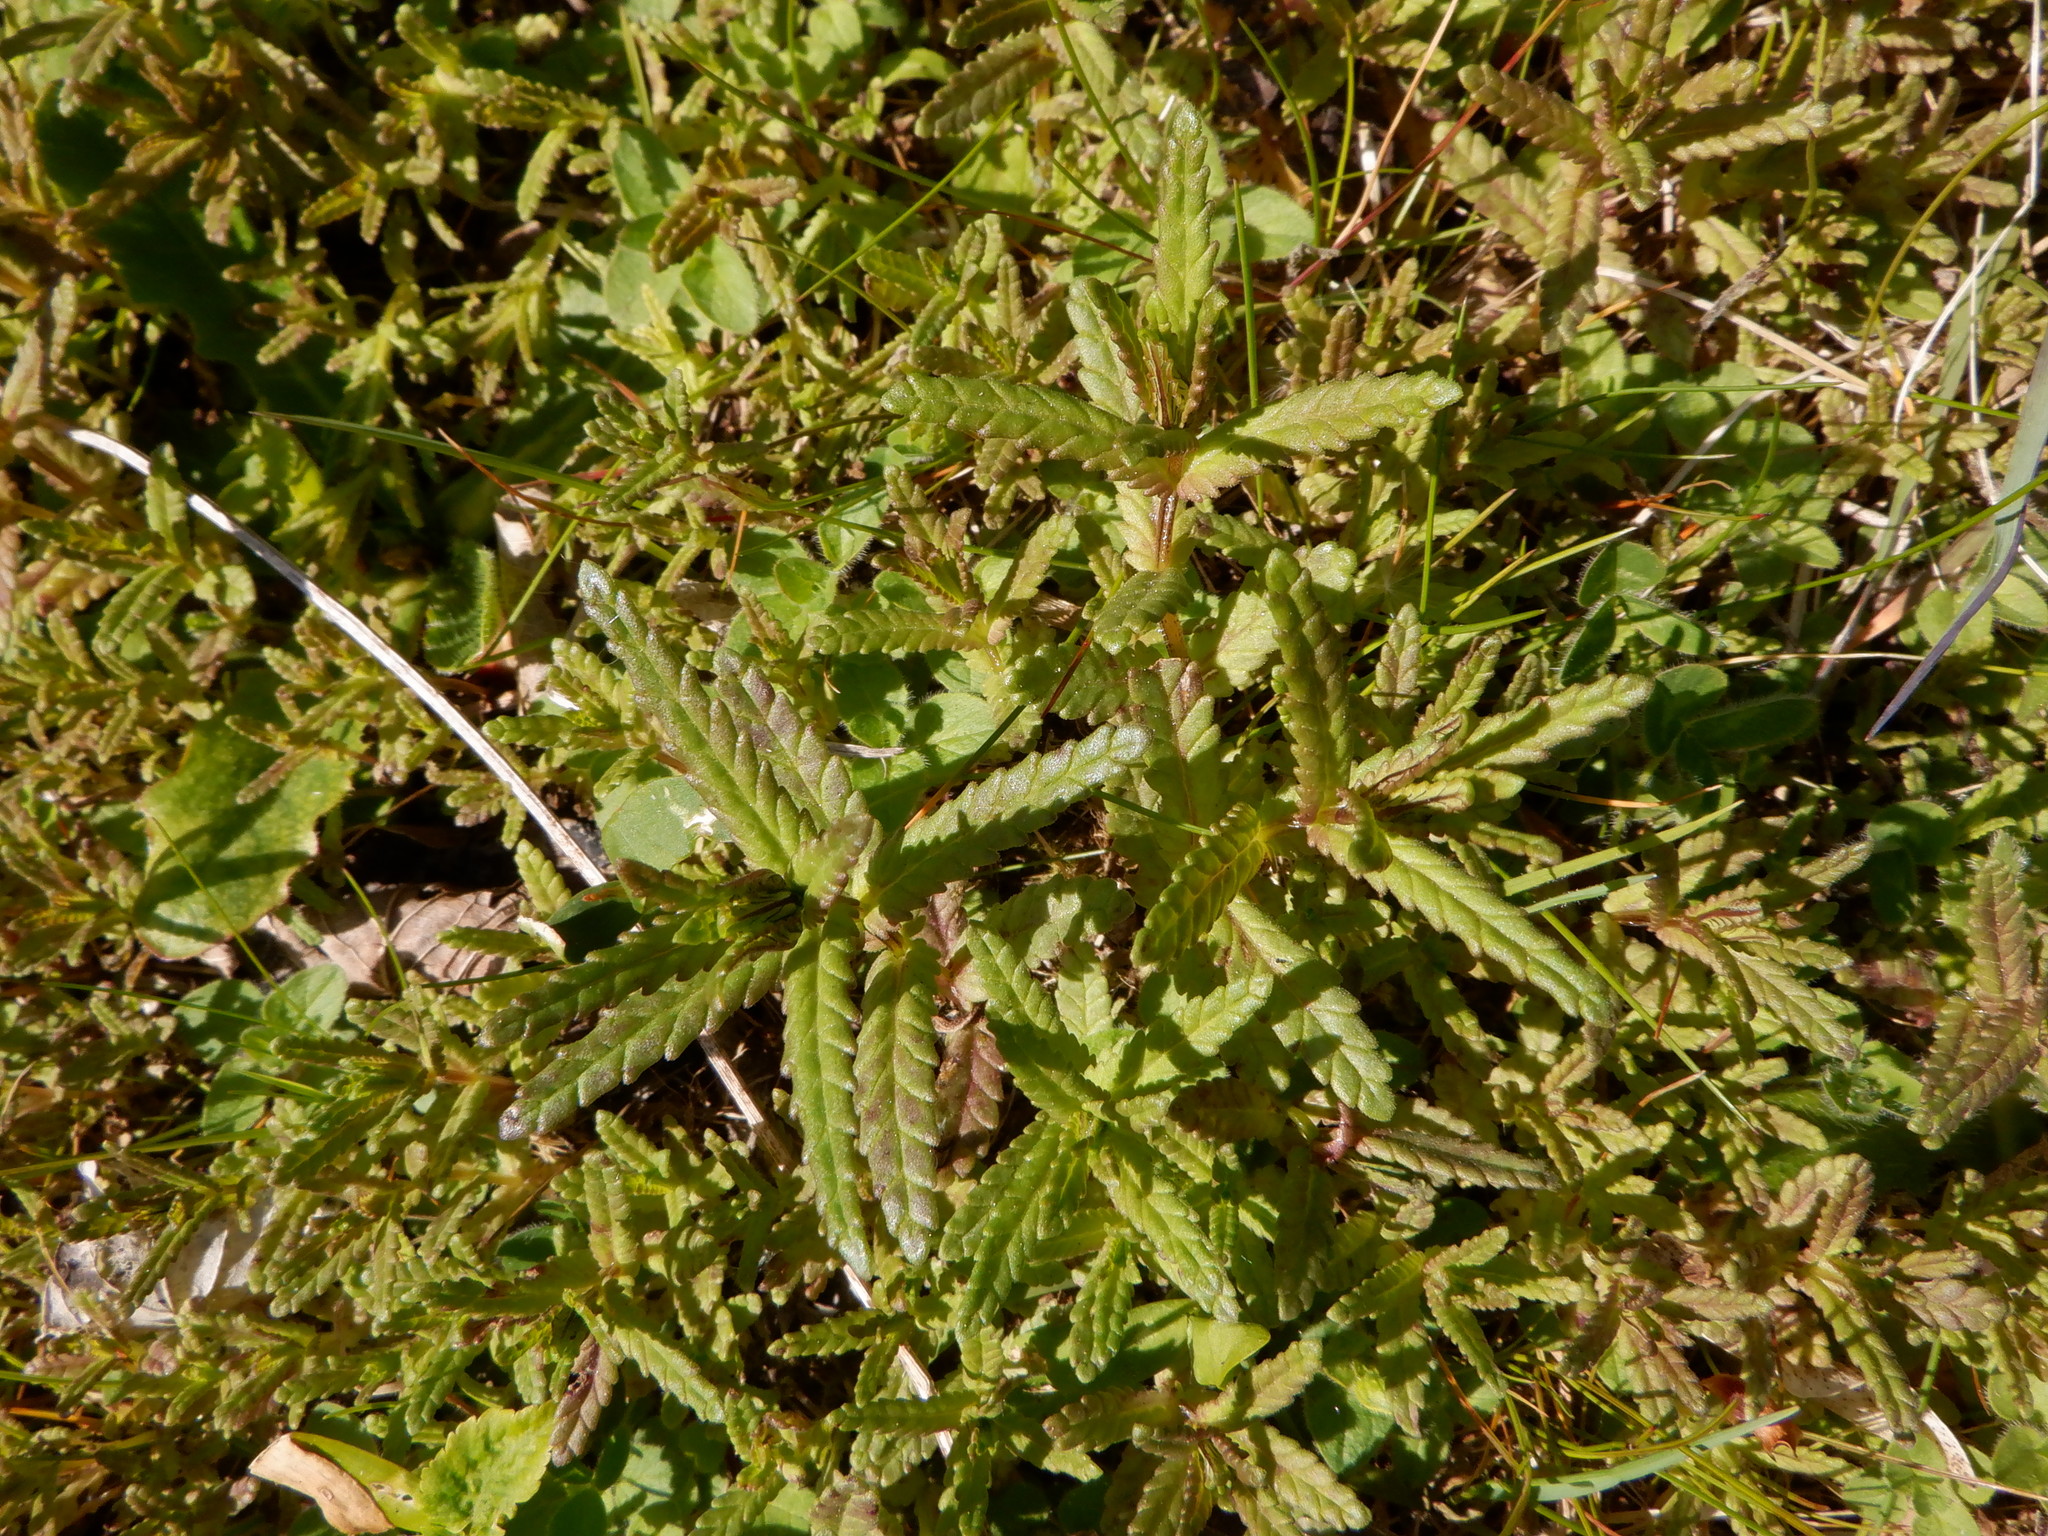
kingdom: Plantae
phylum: Tracheophyta
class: Magnoliopsida
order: Lamiales
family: Orobanchaceae
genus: Rhinanthus
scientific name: Rhinanthus minor
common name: Yellow-rattle
